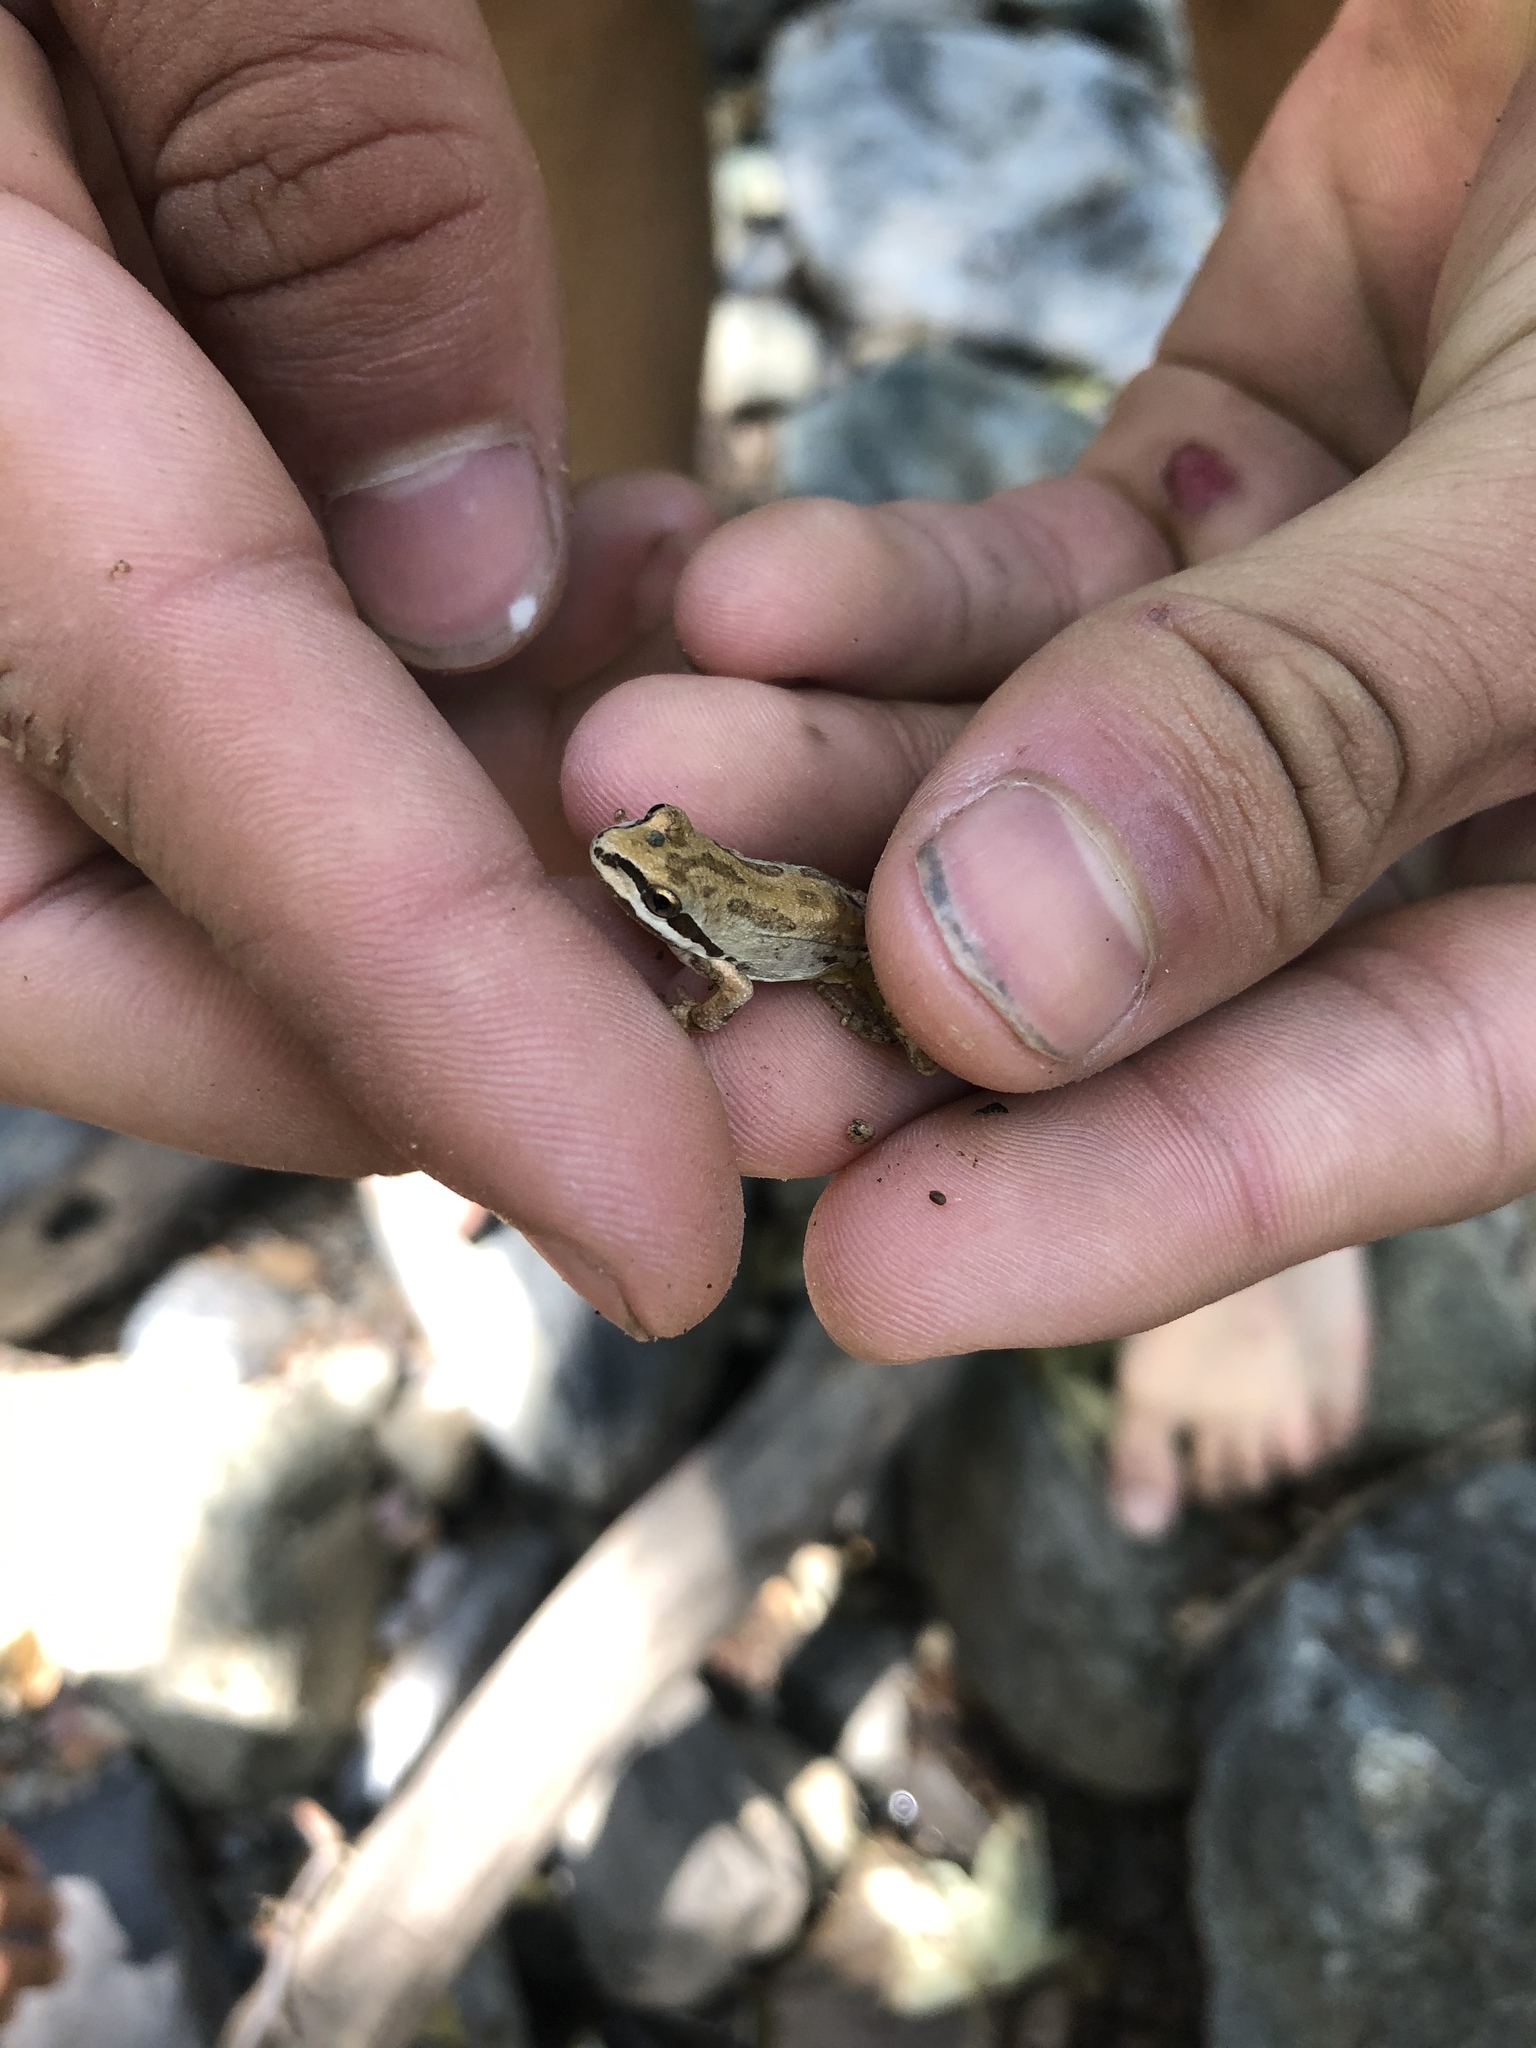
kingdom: Animalia
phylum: Chordata
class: Amphibia
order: Anura
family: Hylidae
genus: Pseudacris
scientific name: Pseudacris regilla
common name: Pacific chorus frog
